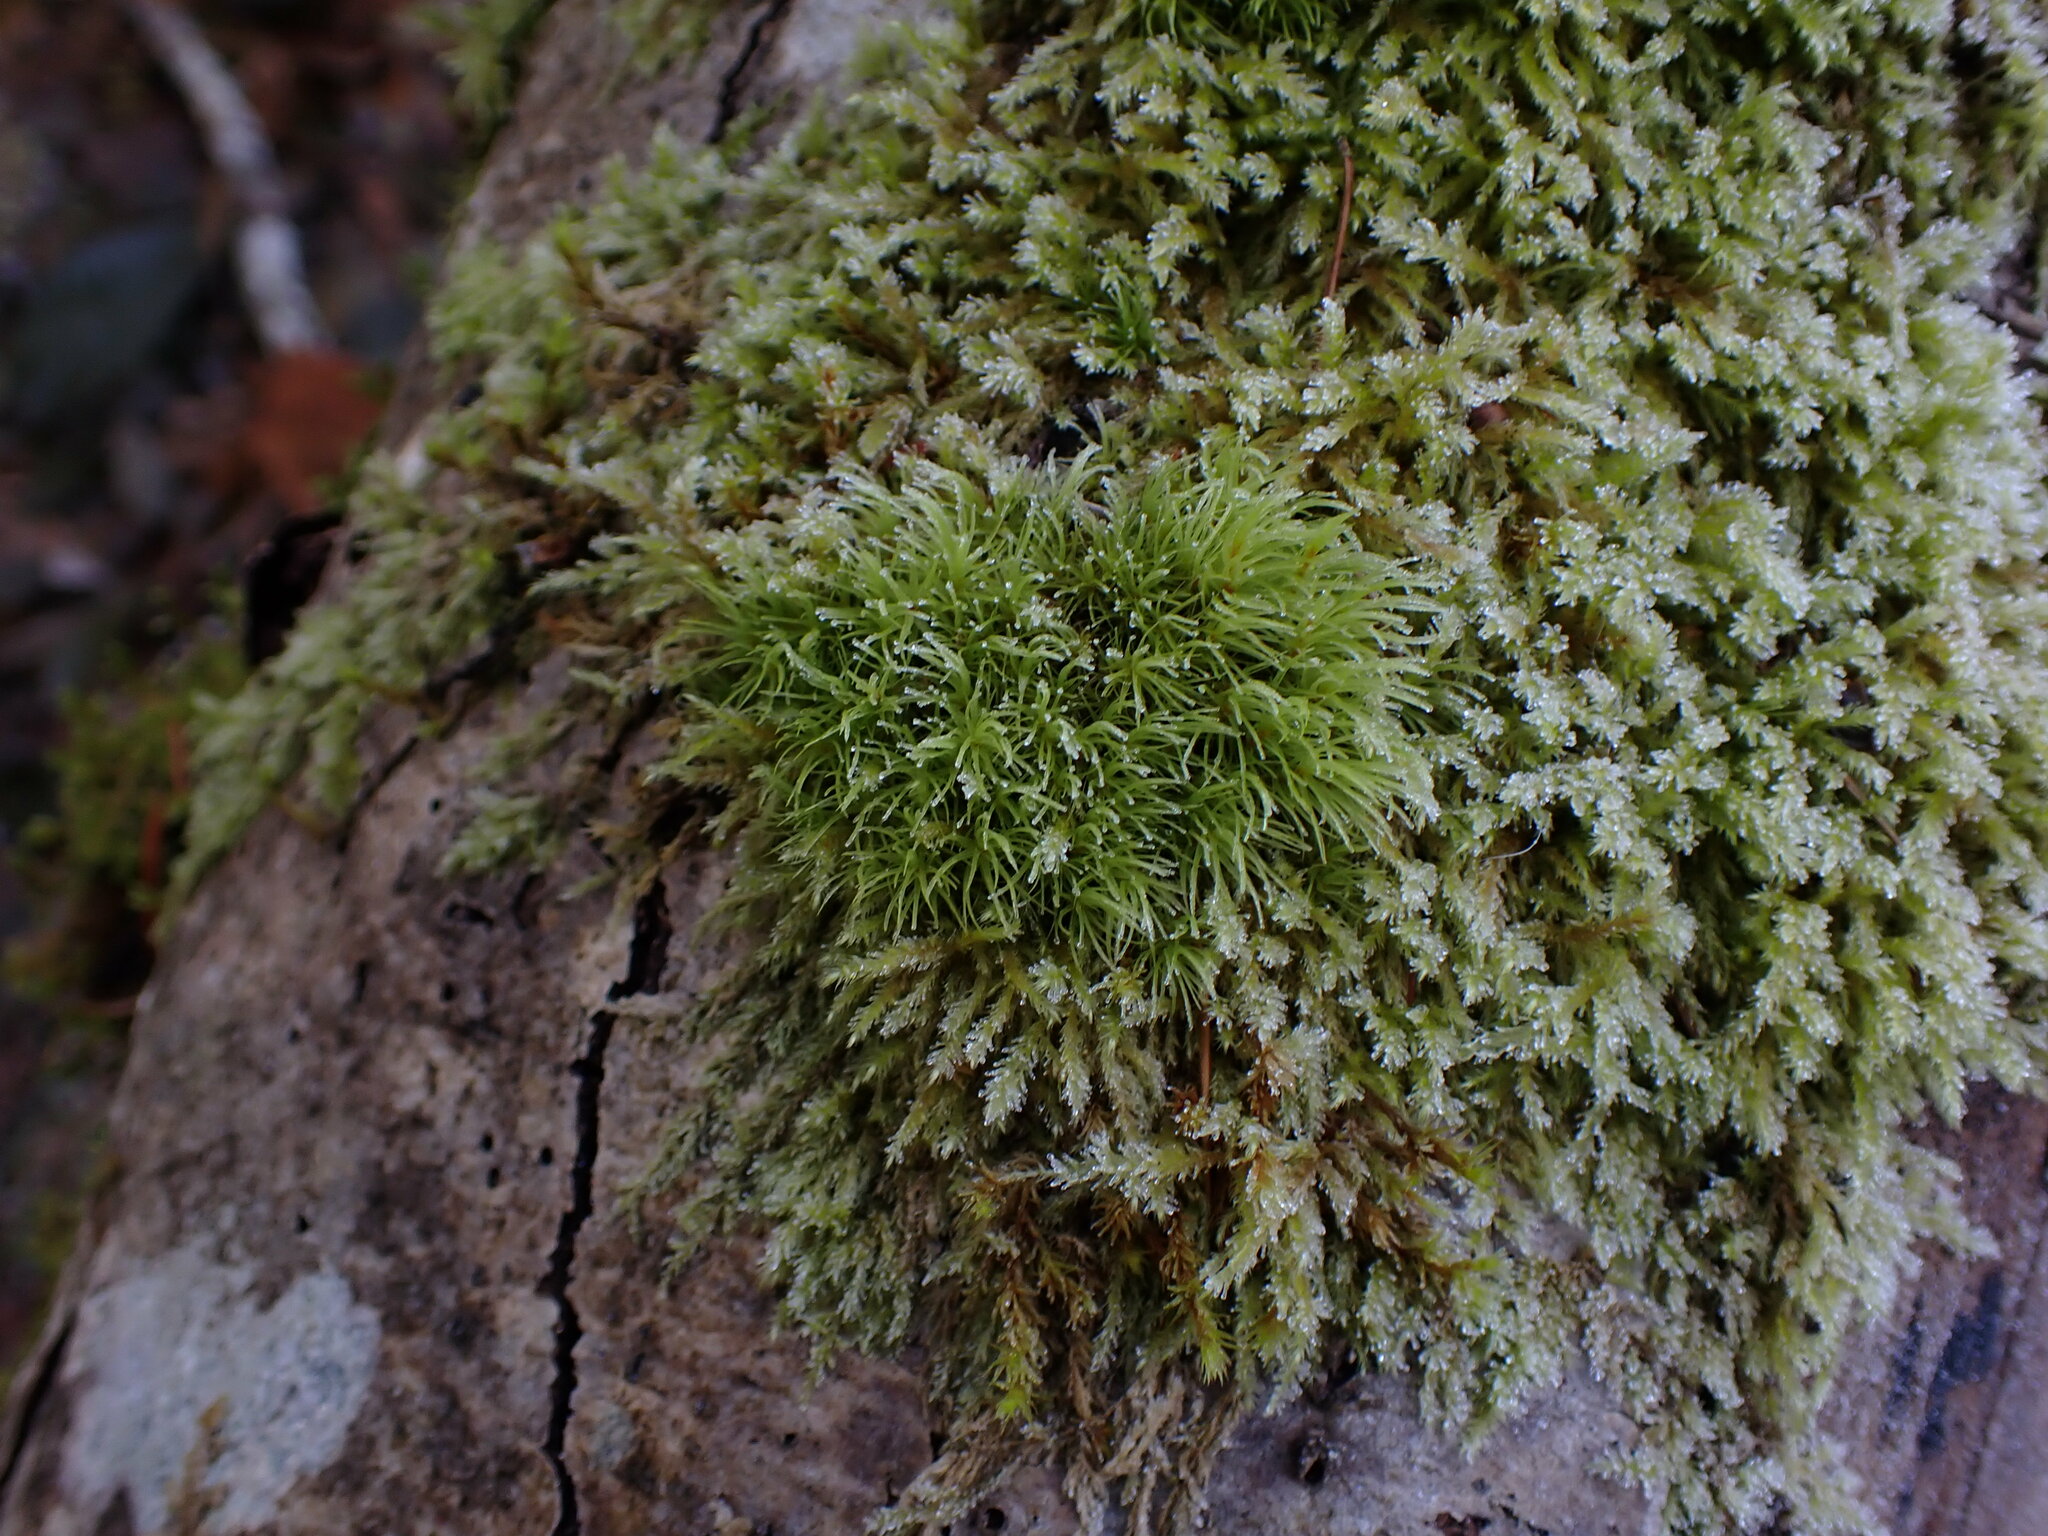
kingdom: Plantae
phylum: Bryophyta
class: Bryopsida
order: Dicranales
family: Dicranaceae
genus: Orthodicranum
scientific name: Orthodicranum tauricum
